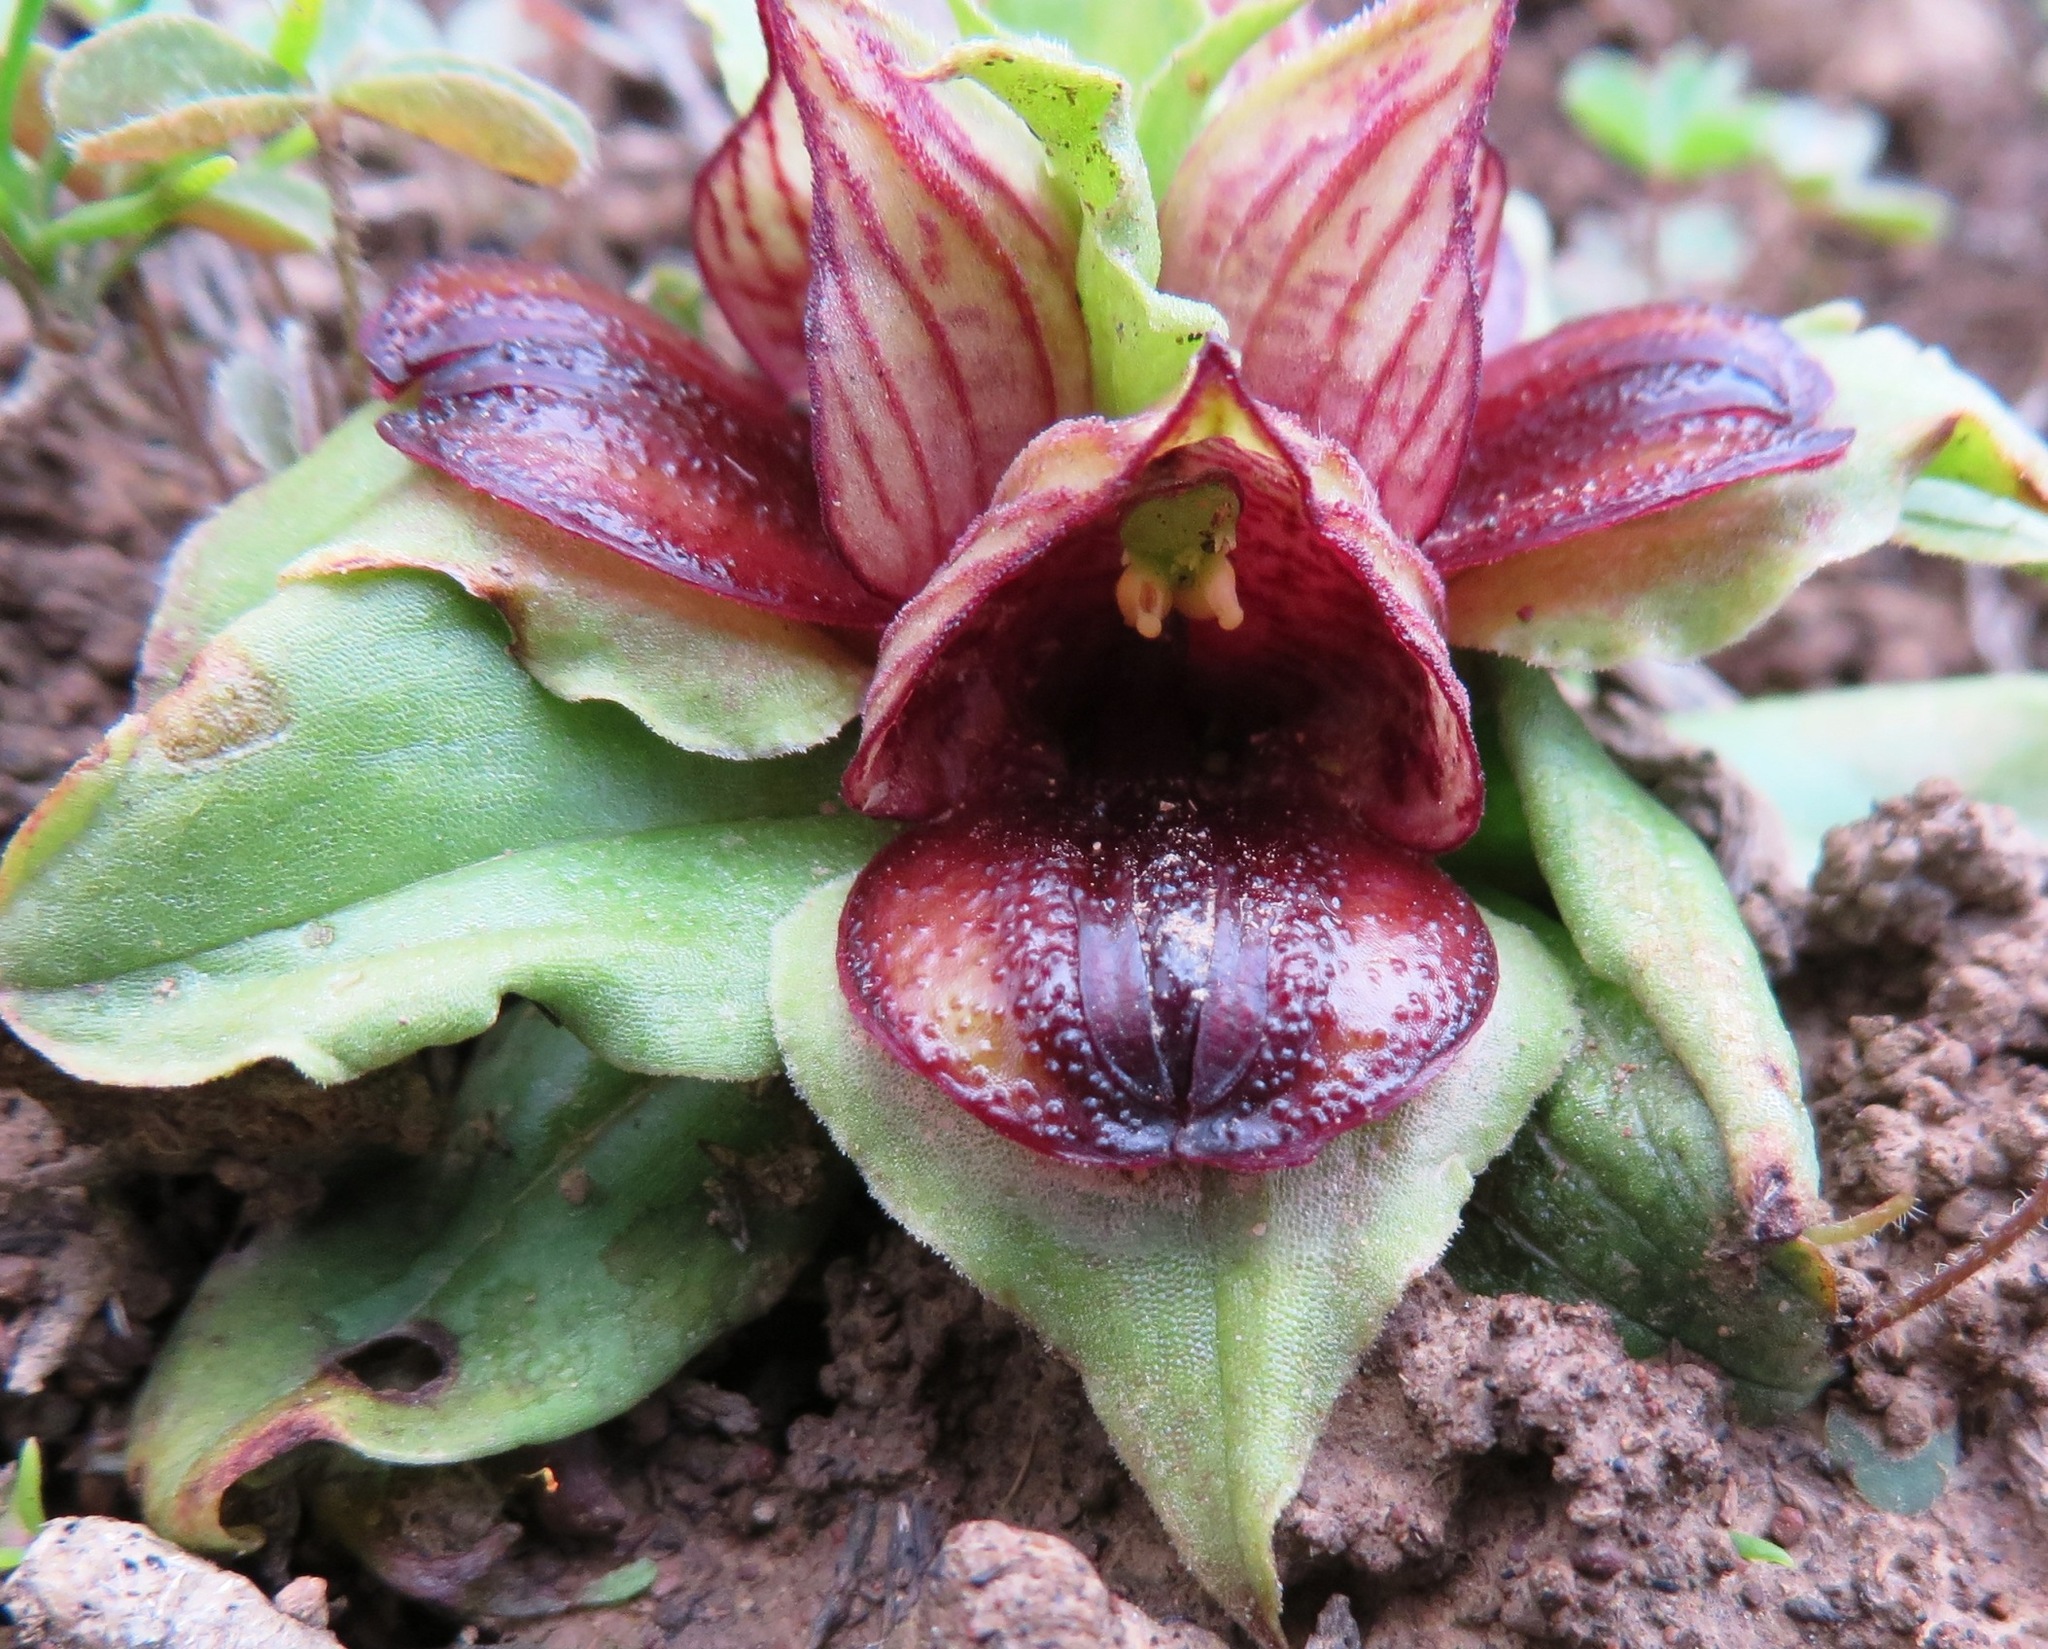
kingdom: Plantae
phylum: Tracheophyta
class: Liliopsida
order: Asparagales
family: Orchidaceae
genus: Satyrium
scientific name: Satyrium pumilum
